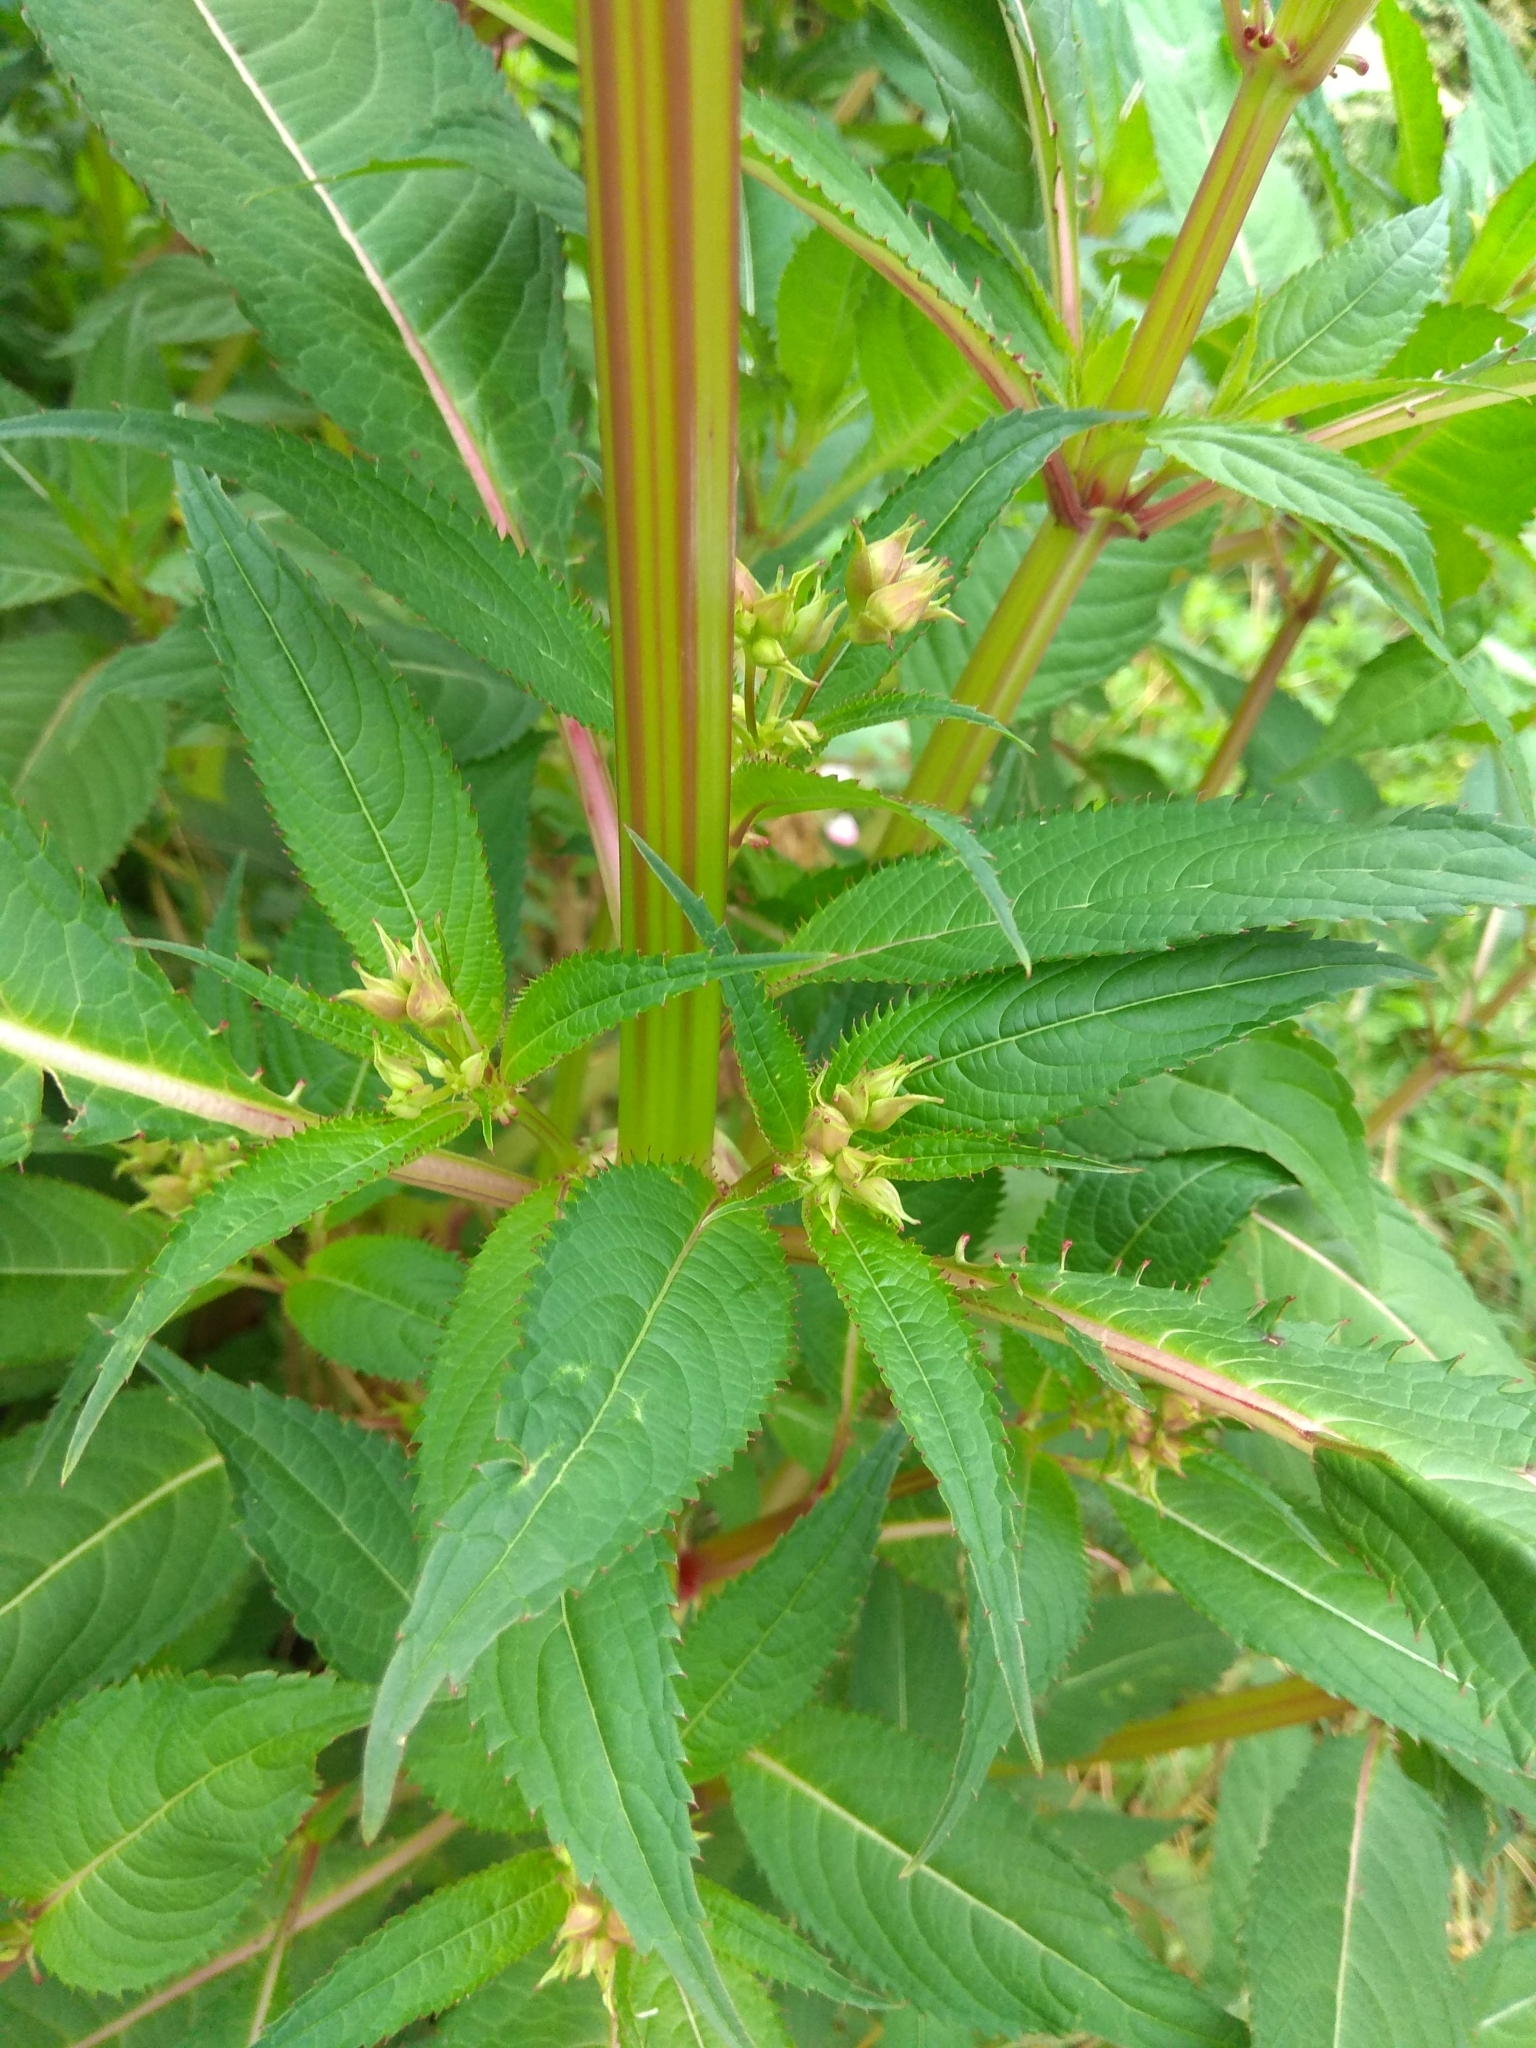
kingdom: Plantae
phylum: Tracheophyta
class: Magnoliopsida
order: Ericales
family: Balsaminaceae
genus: Impatiens
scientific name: Impatiens glandulifera
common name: Himalayan balsam
